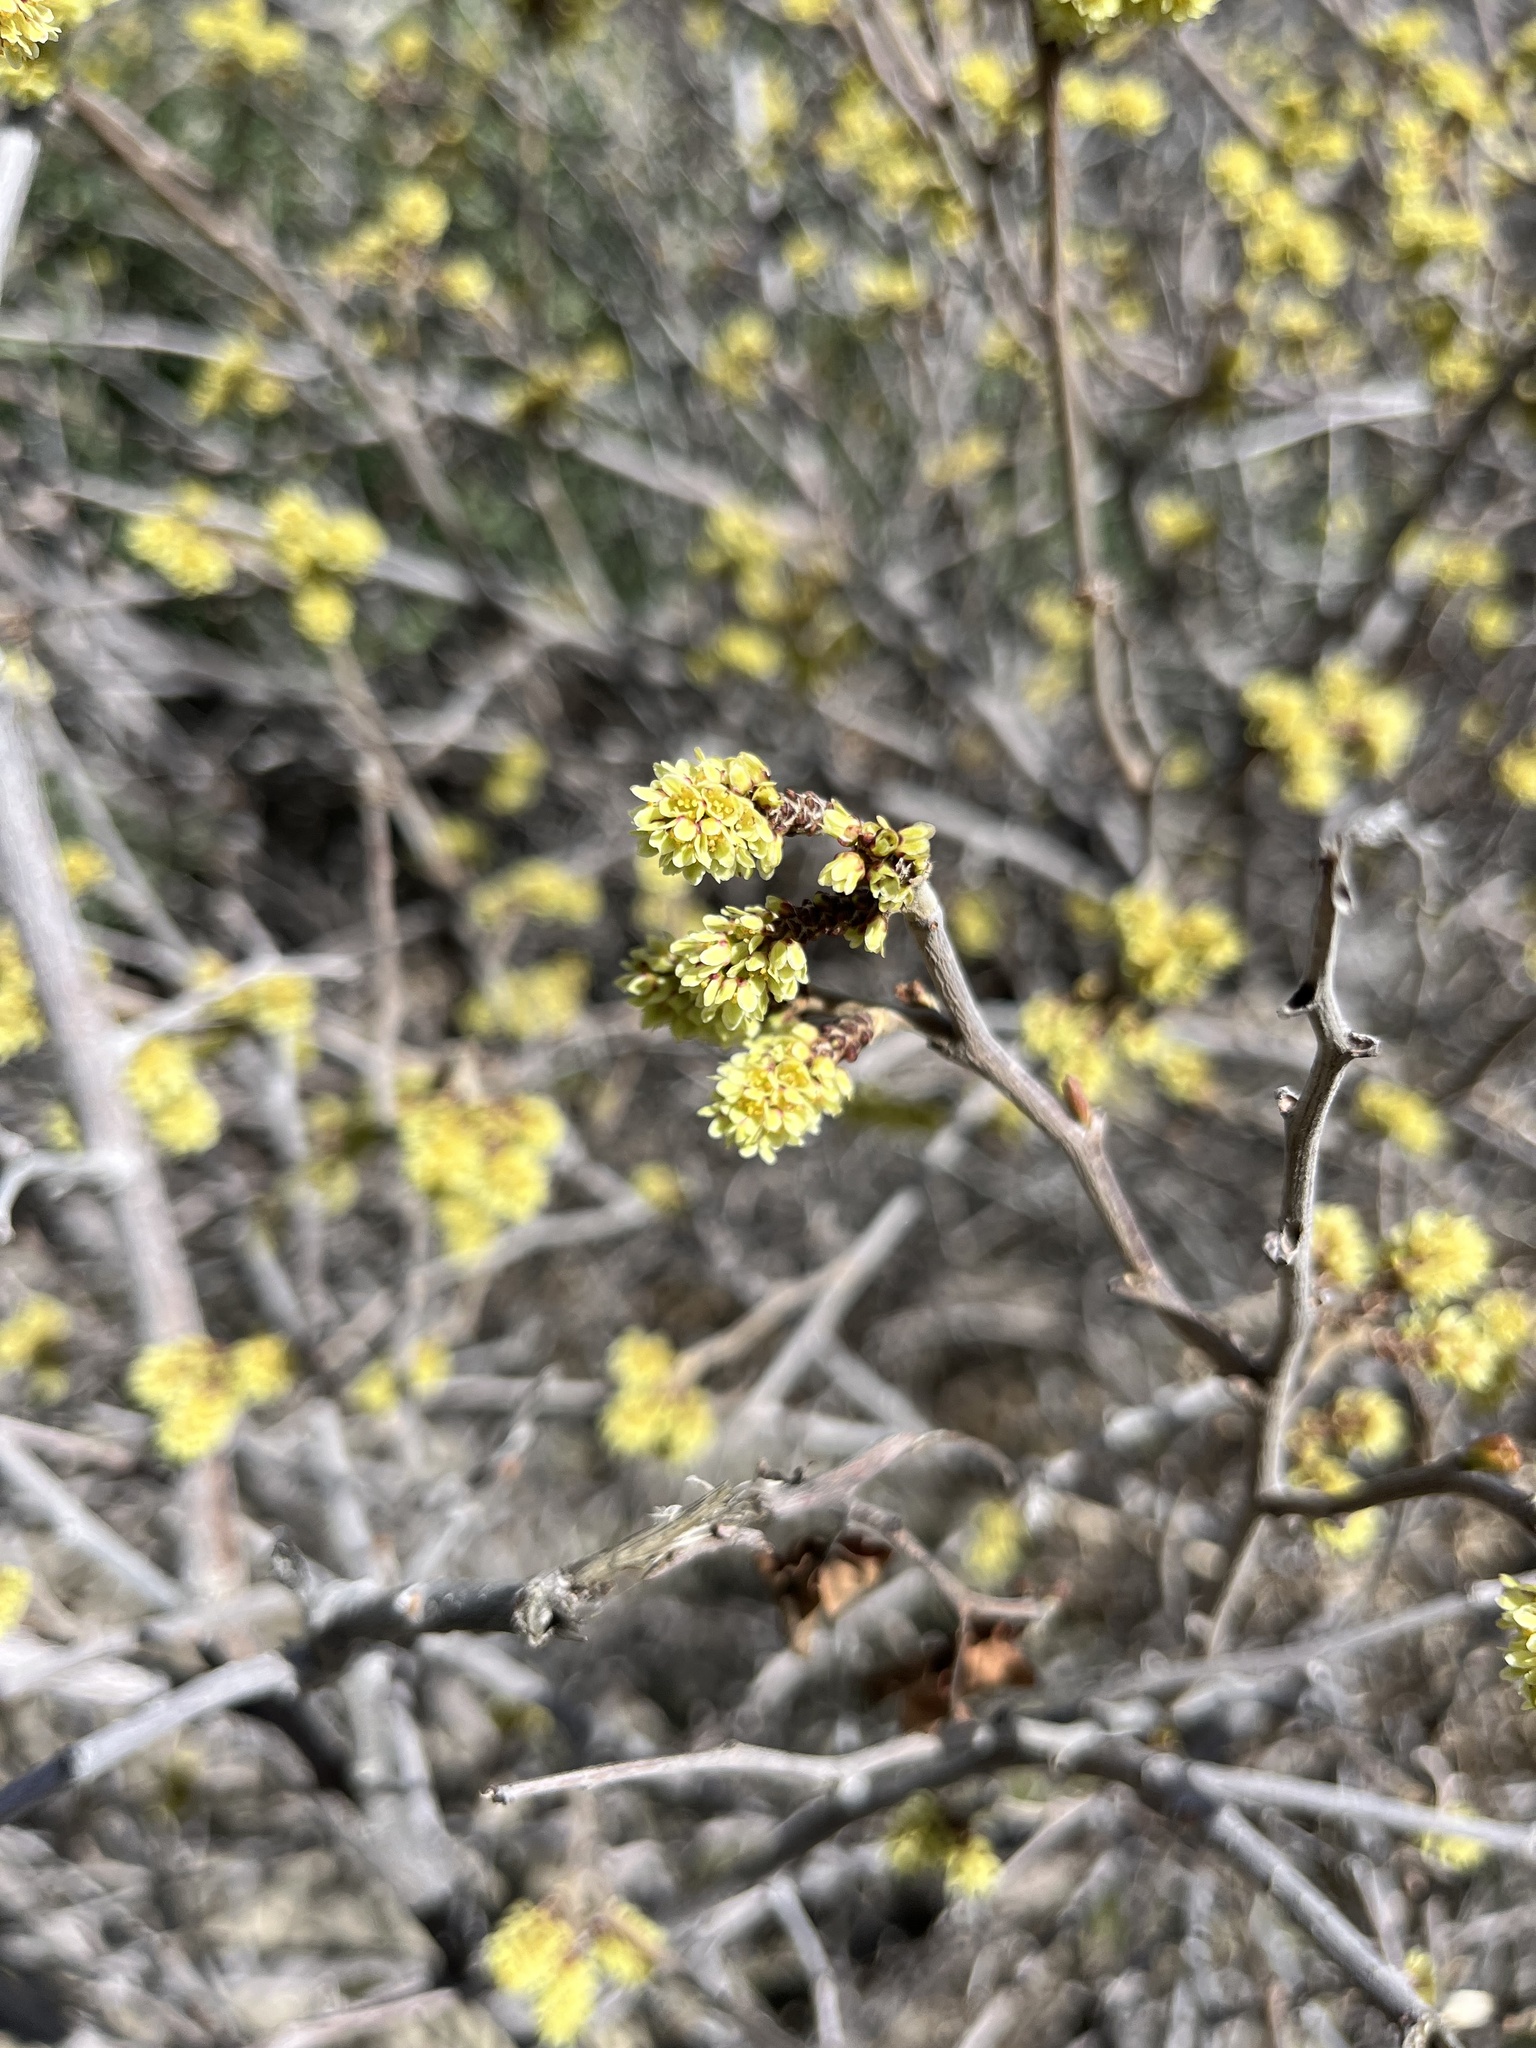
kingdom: Plantae
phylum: Tracheophyta
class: Magnoliopsida
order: Sapindales
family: Anacardiaceae
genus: Rhus
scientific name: Rhus aromatica
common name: Aromatic sumac
